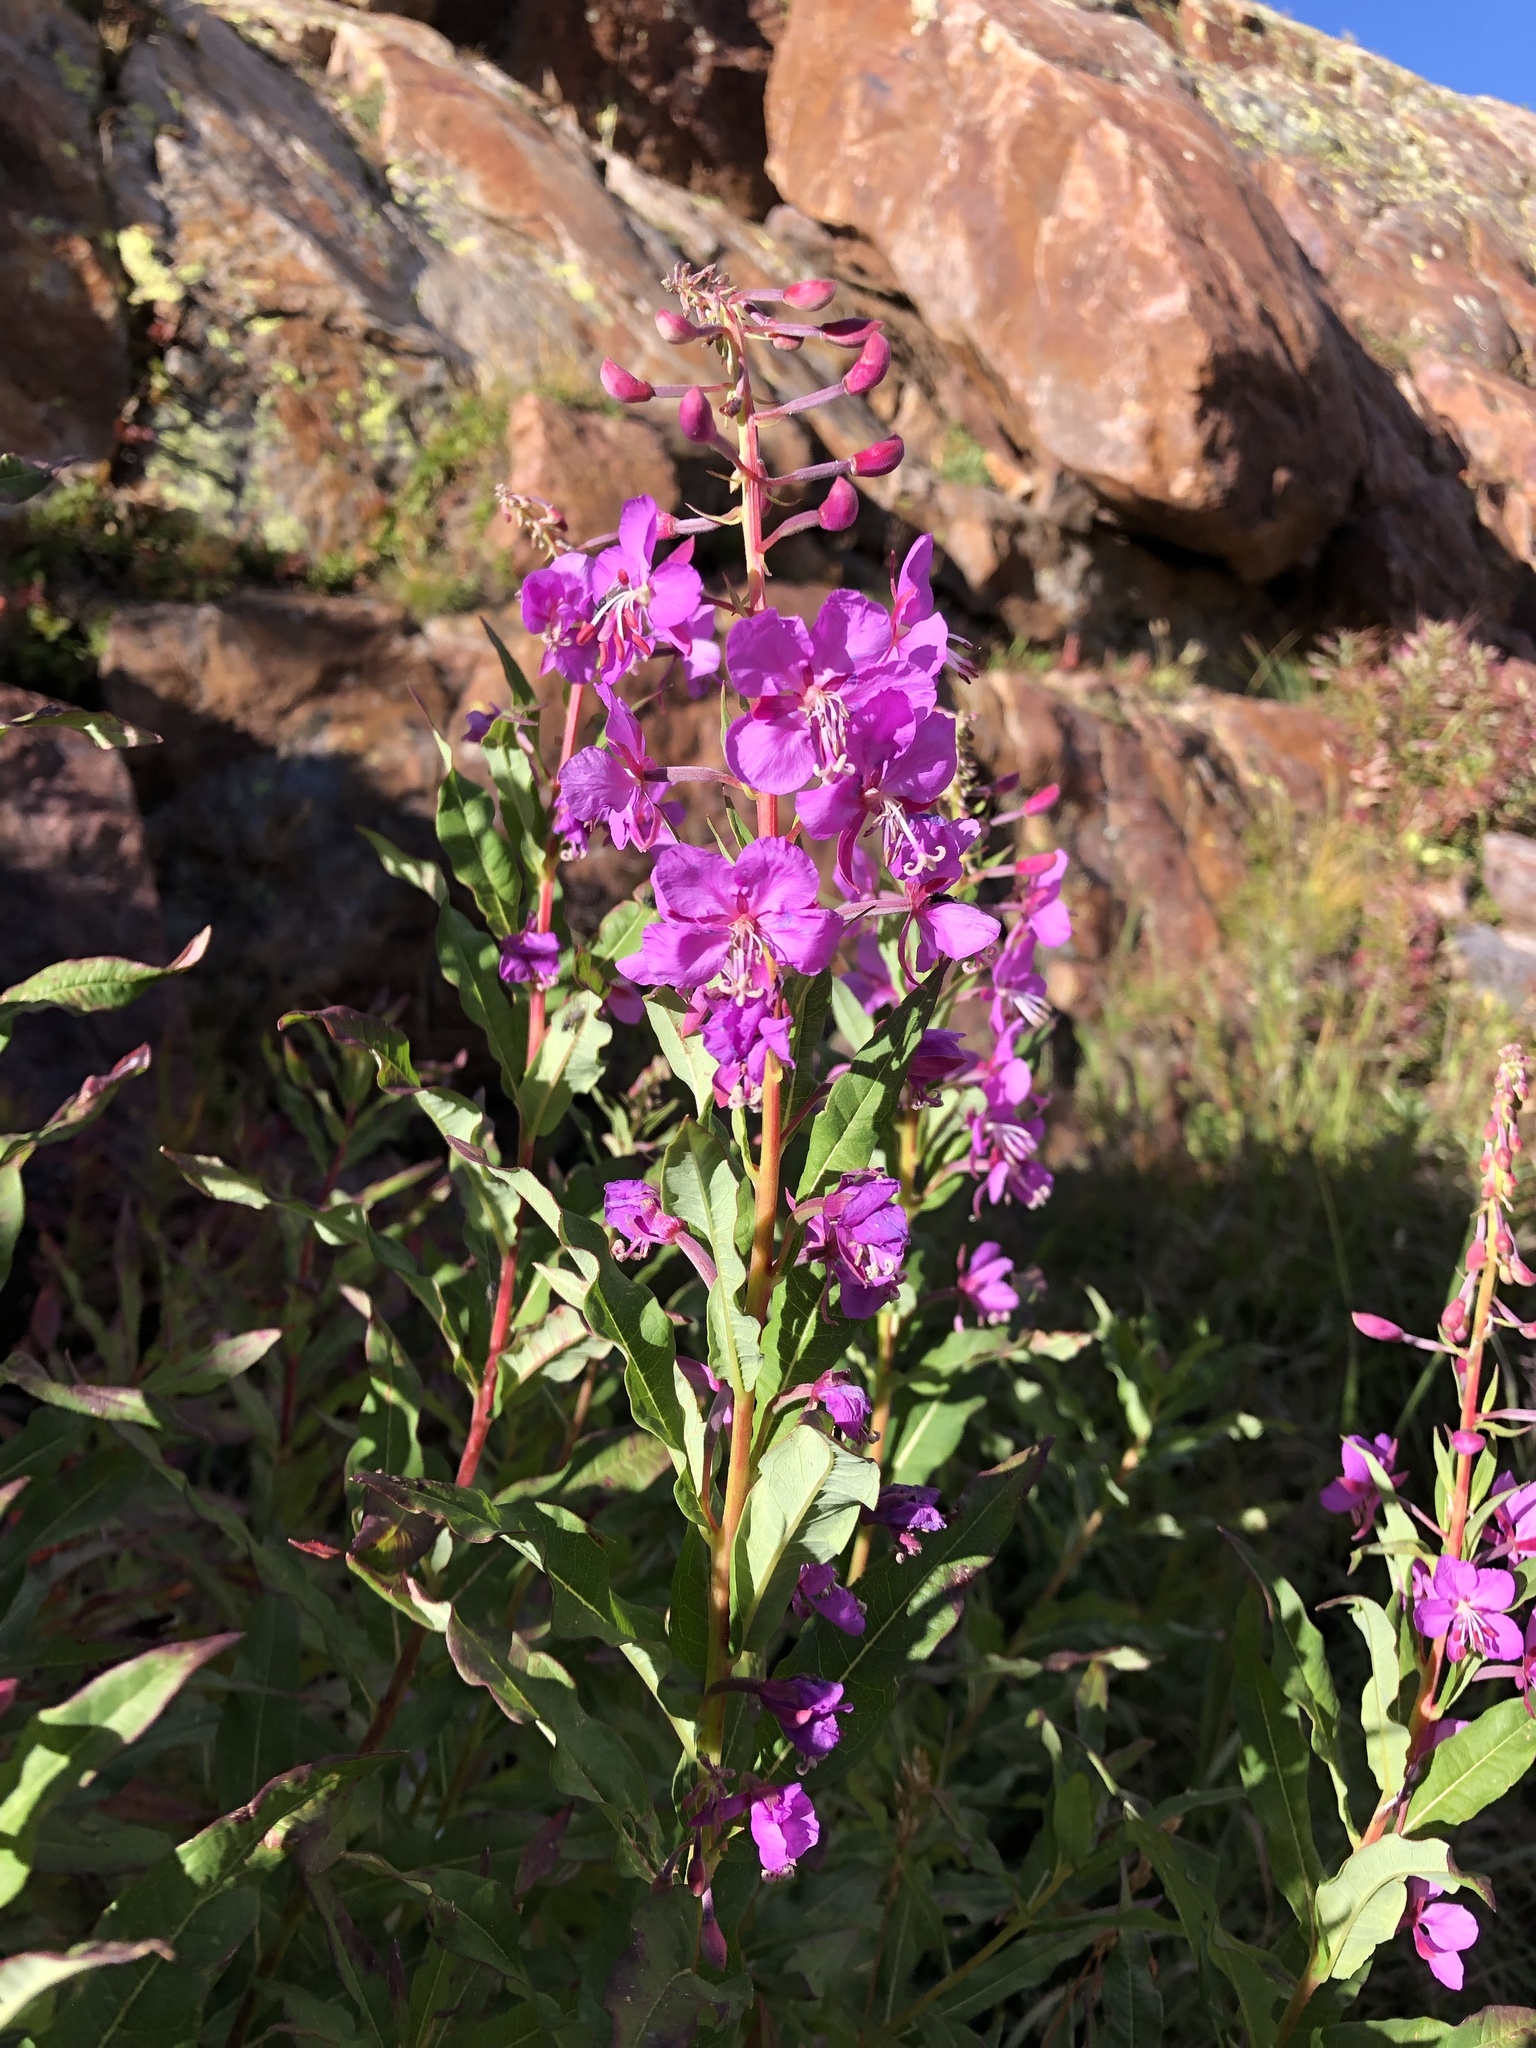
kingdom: Plantae
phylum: Tracheophyta
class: Magnoliopsida
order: Myrtales
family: Onagraceae
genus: Chamaenerion
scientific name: Chamaenerion angustifolium
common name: Fireweed
